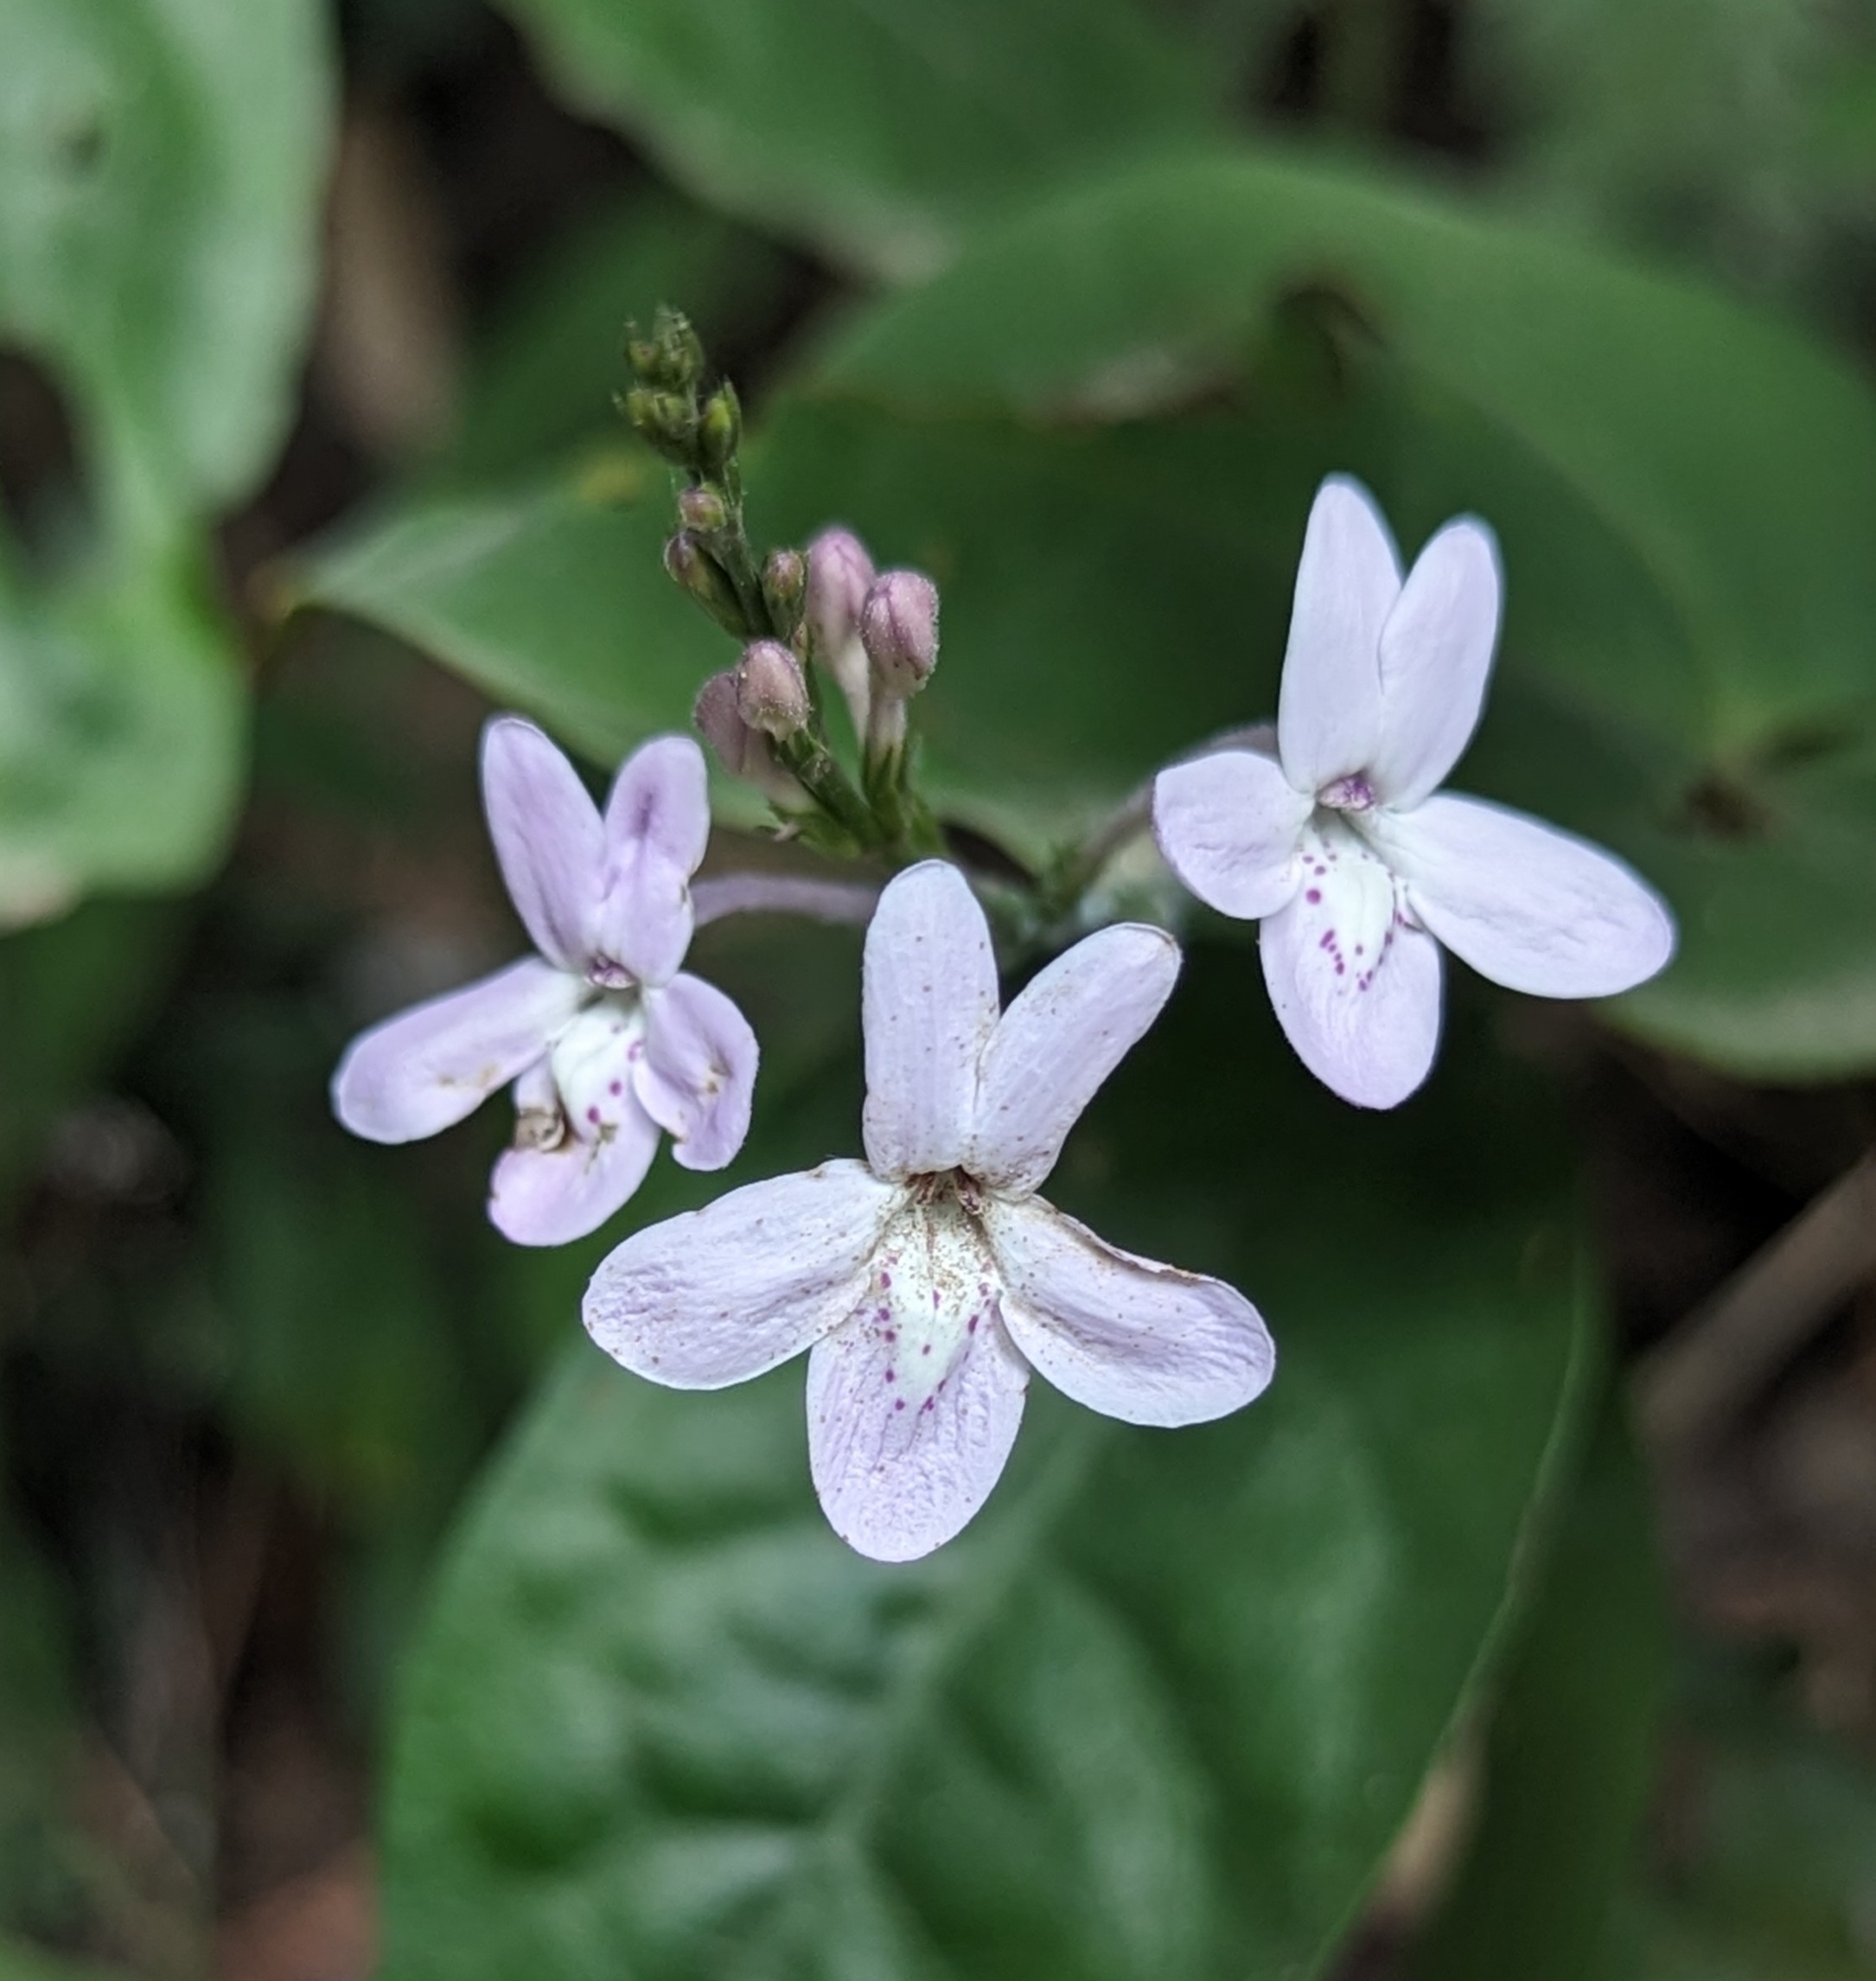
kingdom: Plantae
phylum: Tracheophyta
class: Magnoliopsida
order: Lamiales
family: Acanthaceae
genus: Pseuderanthemum
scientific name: Pseuderanthemum tunicatum
